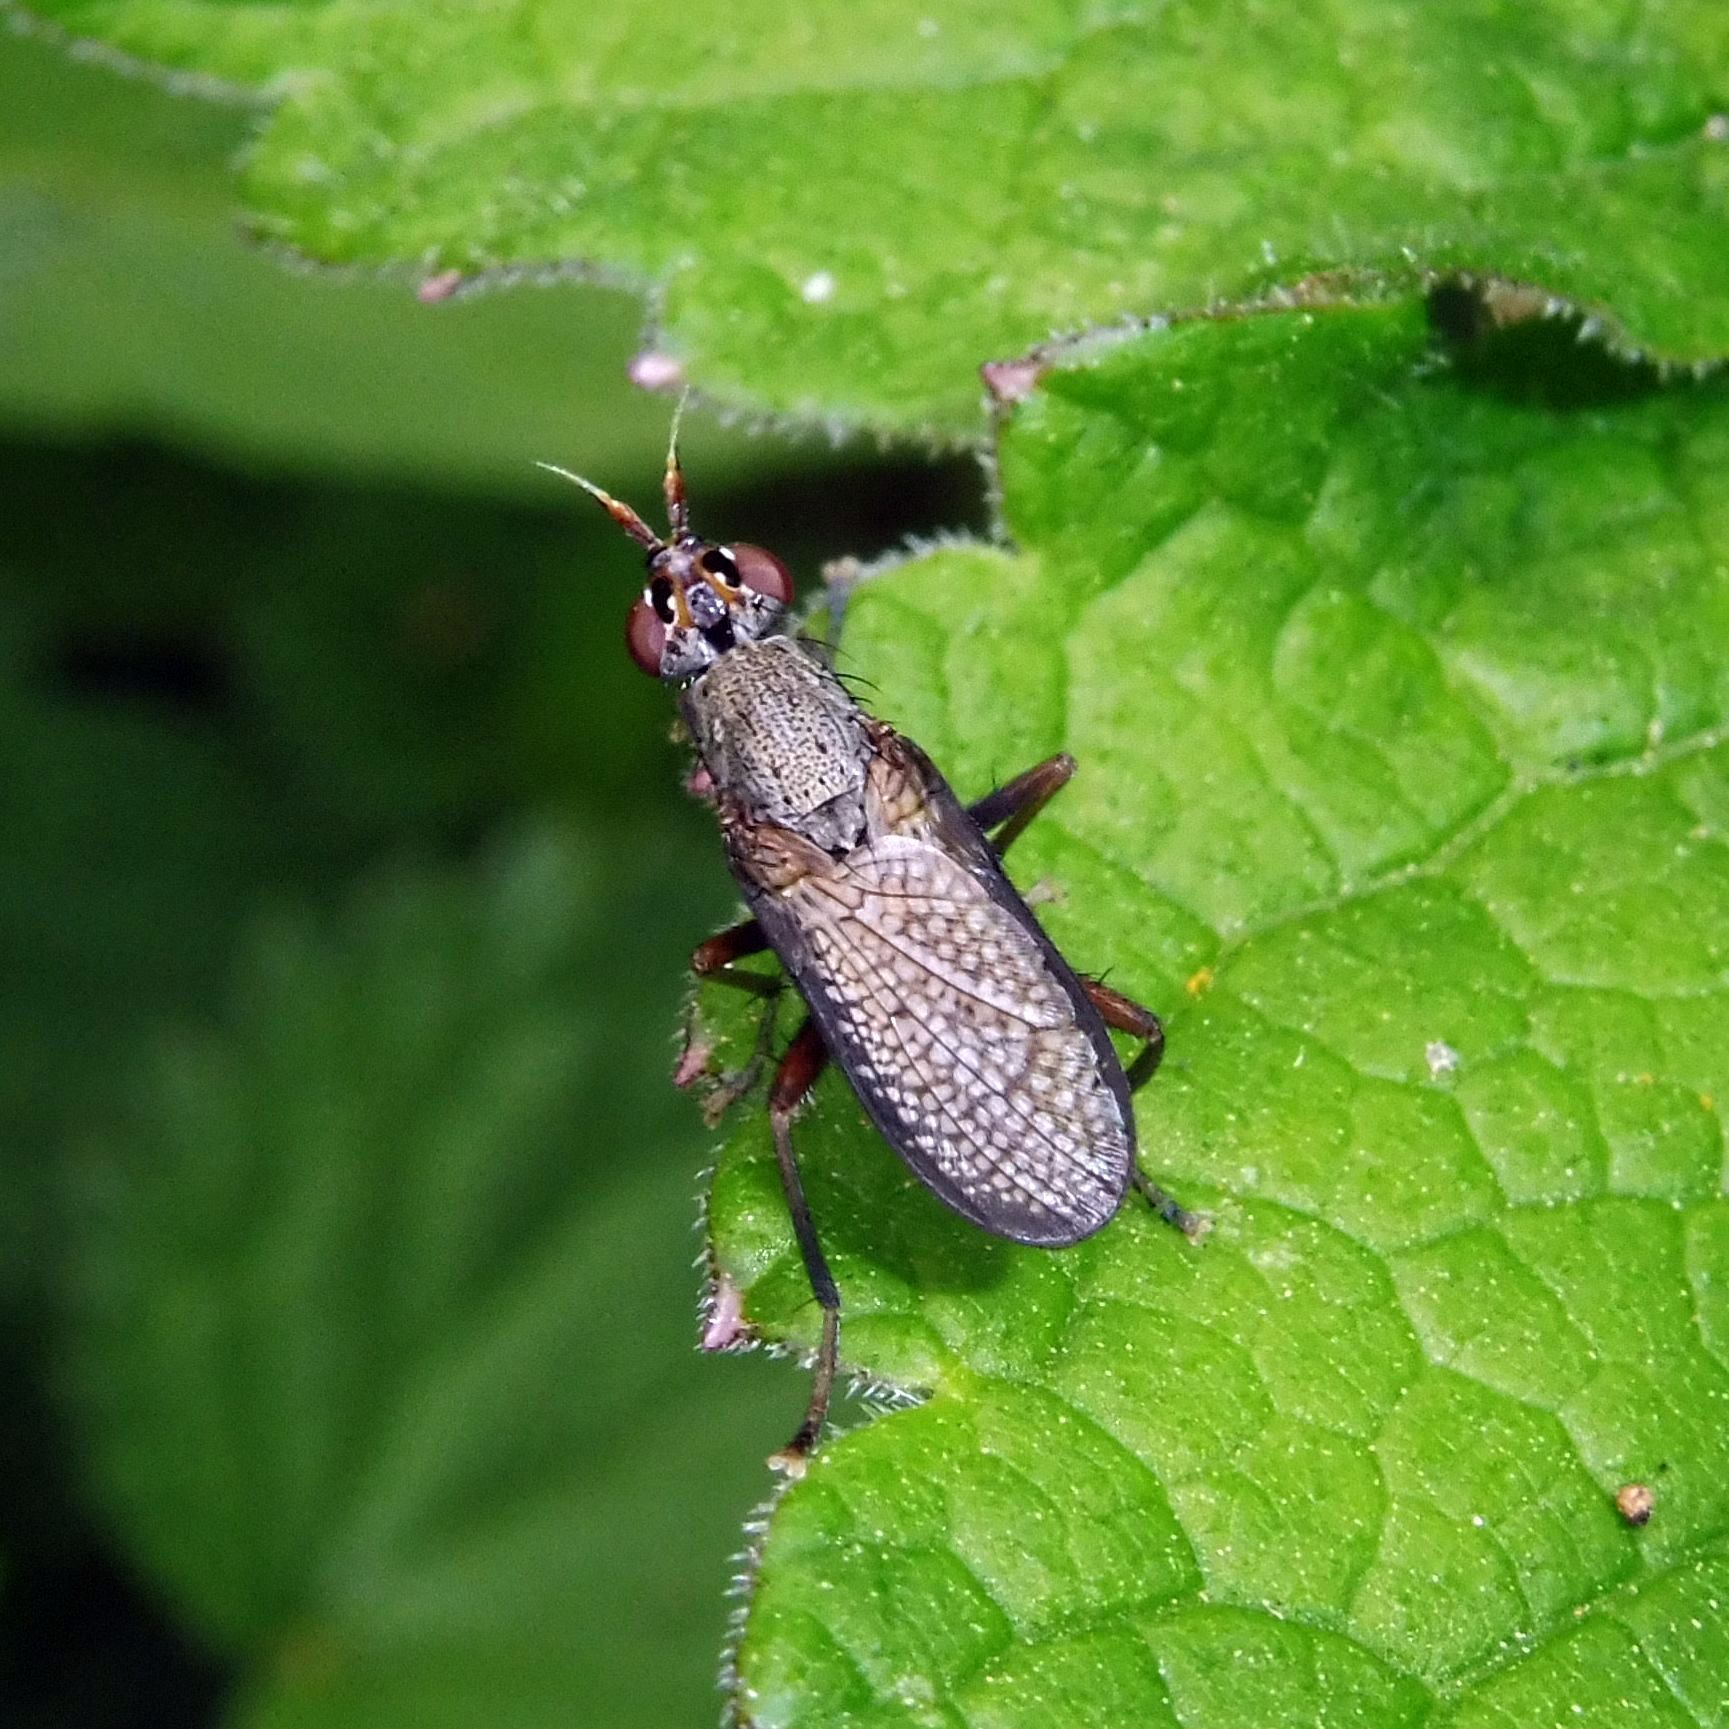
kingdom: Animalia
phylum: Arthropoda
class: Insecta
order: Diptera
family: Sciomyzidae
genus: Coremacera
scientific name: Coremacera marginata
